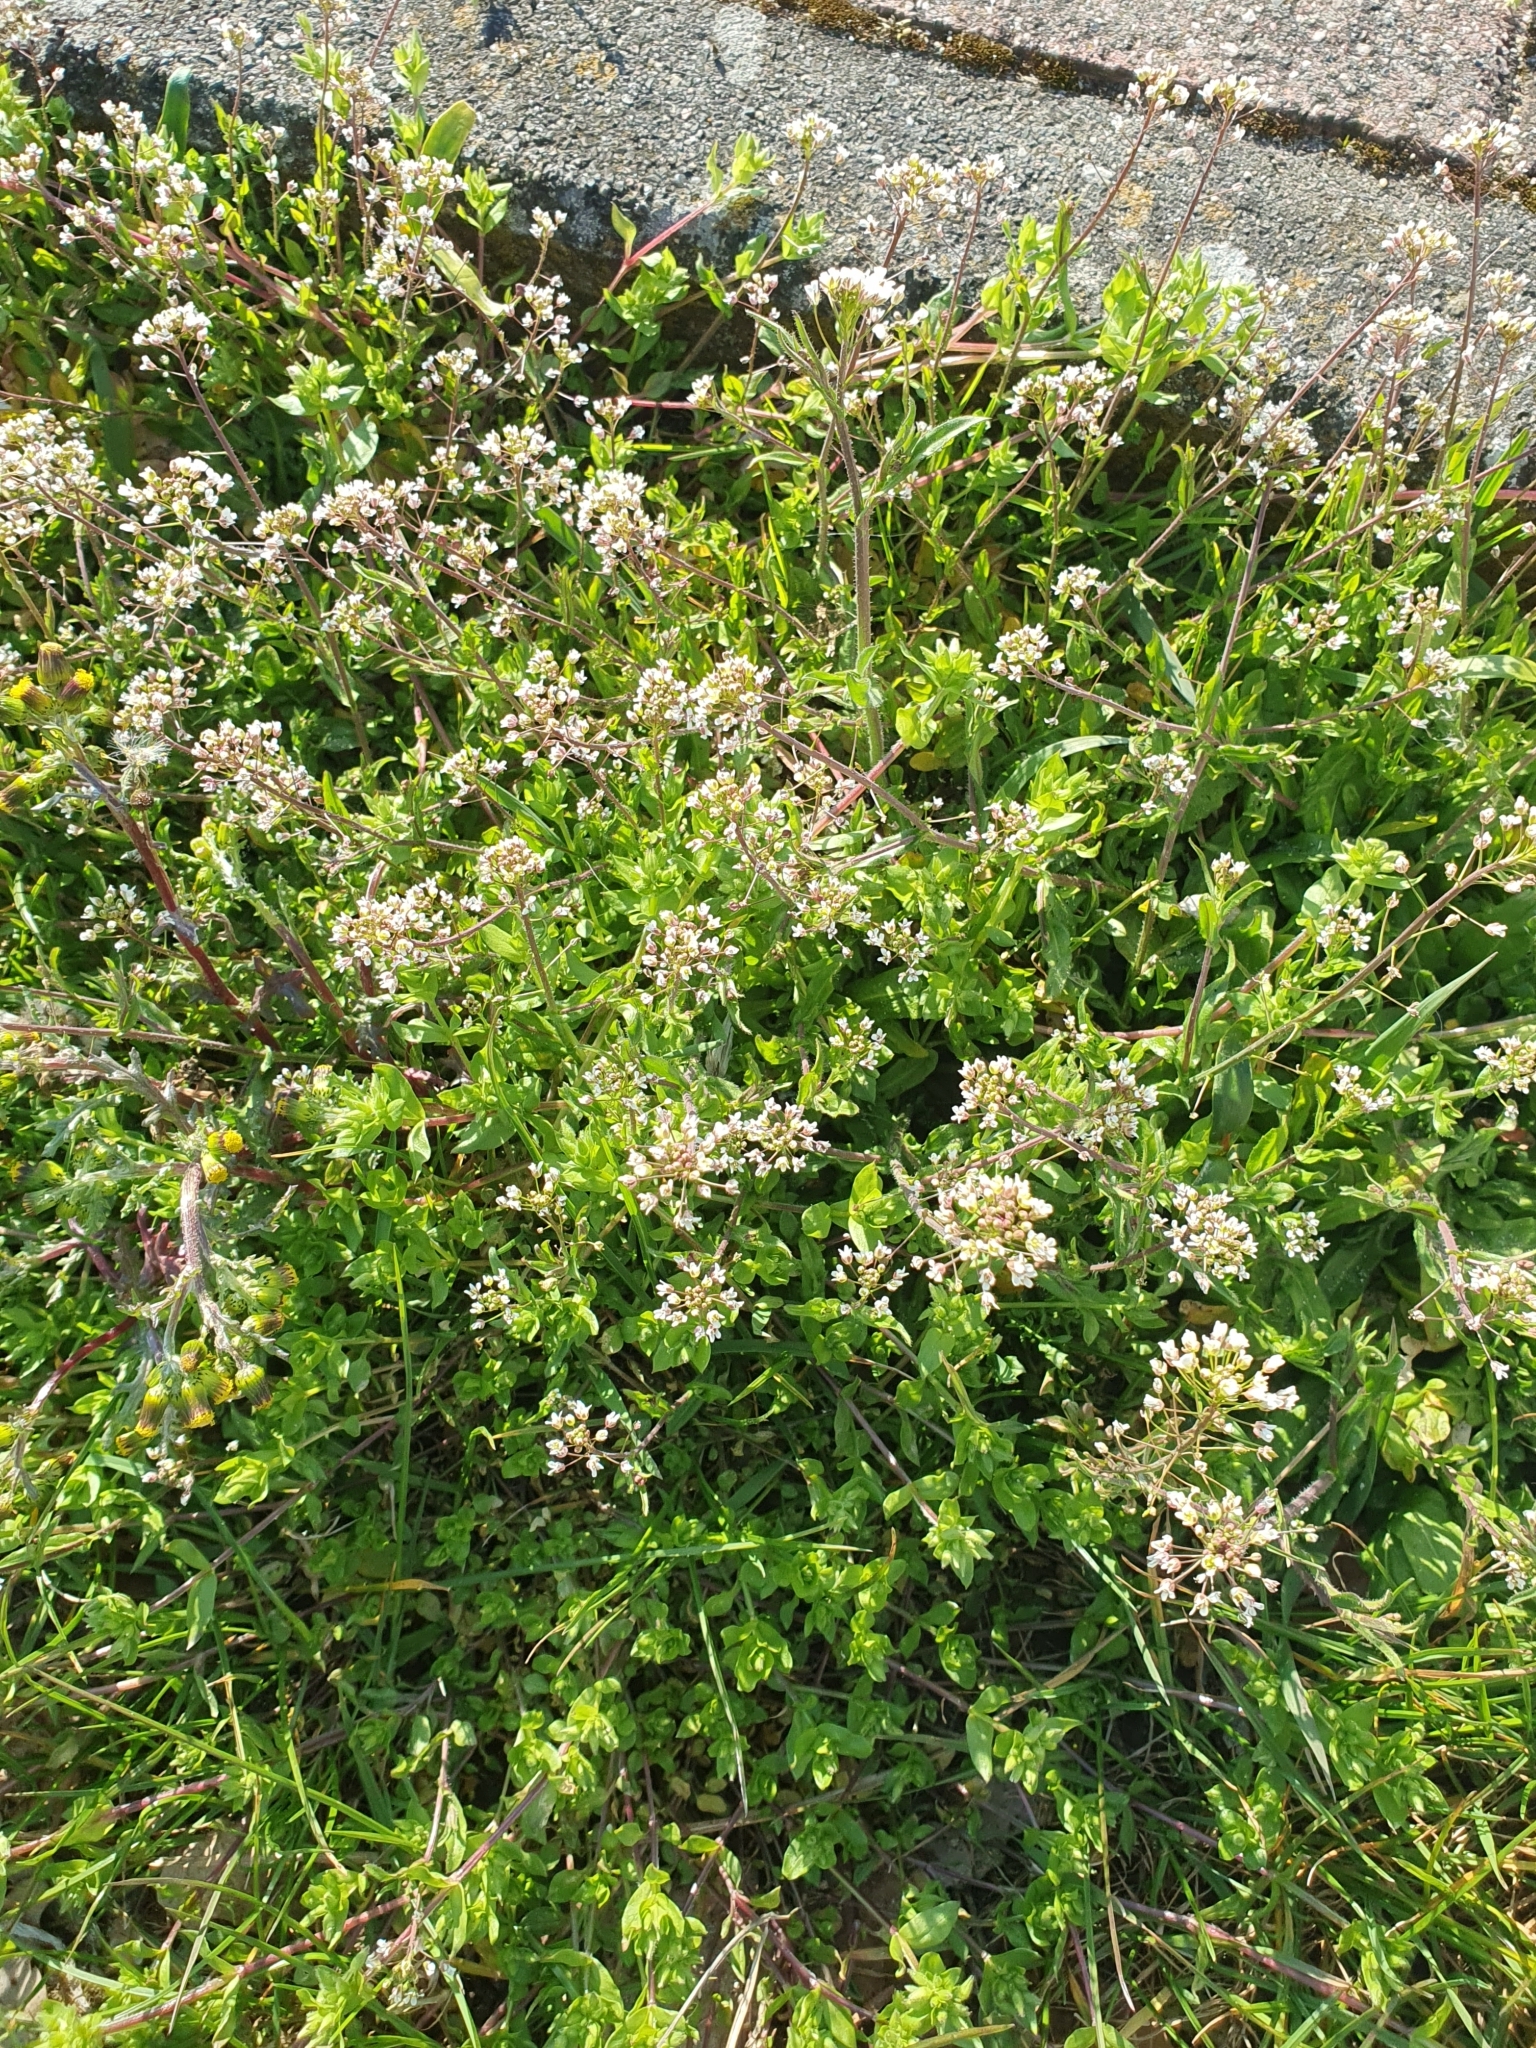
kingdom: Plantae
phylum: Tracheophyta
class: Magnoliopsida
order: Brassicales
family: Brassicaceae
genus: Capsella
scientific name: Capsella bursa-pastoris
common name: Shepherd's purse
